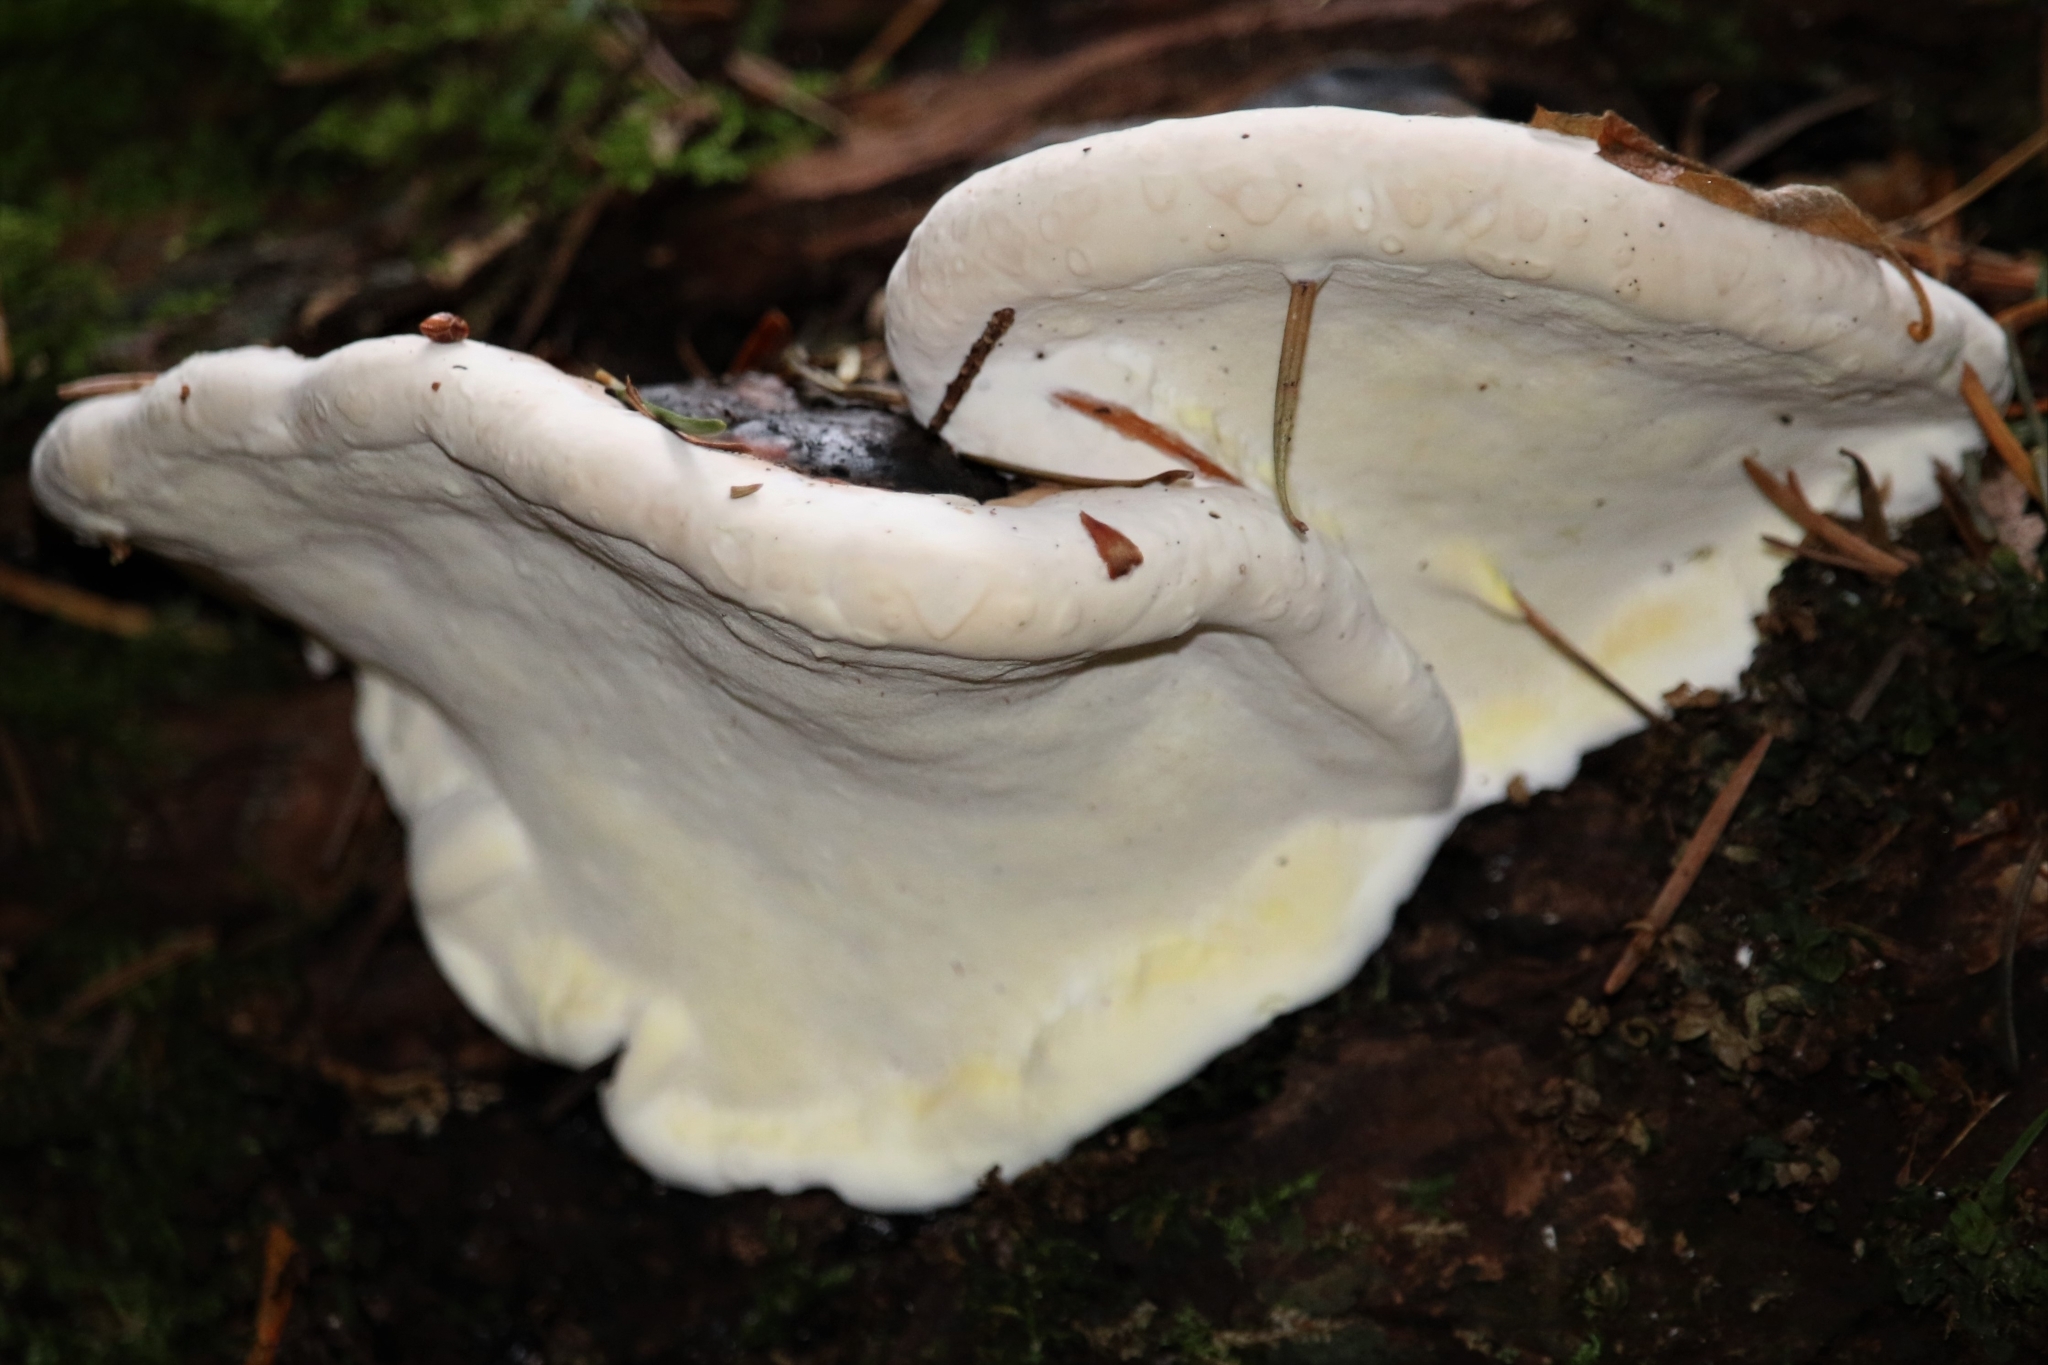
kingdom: Fungi
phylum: Basidiomycota
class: Agaricomycetes
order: Polyporales
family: Fomitopsidaceae
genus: Fomitopsis
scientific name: Fomitopsis mounceae
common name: Northern red belt
